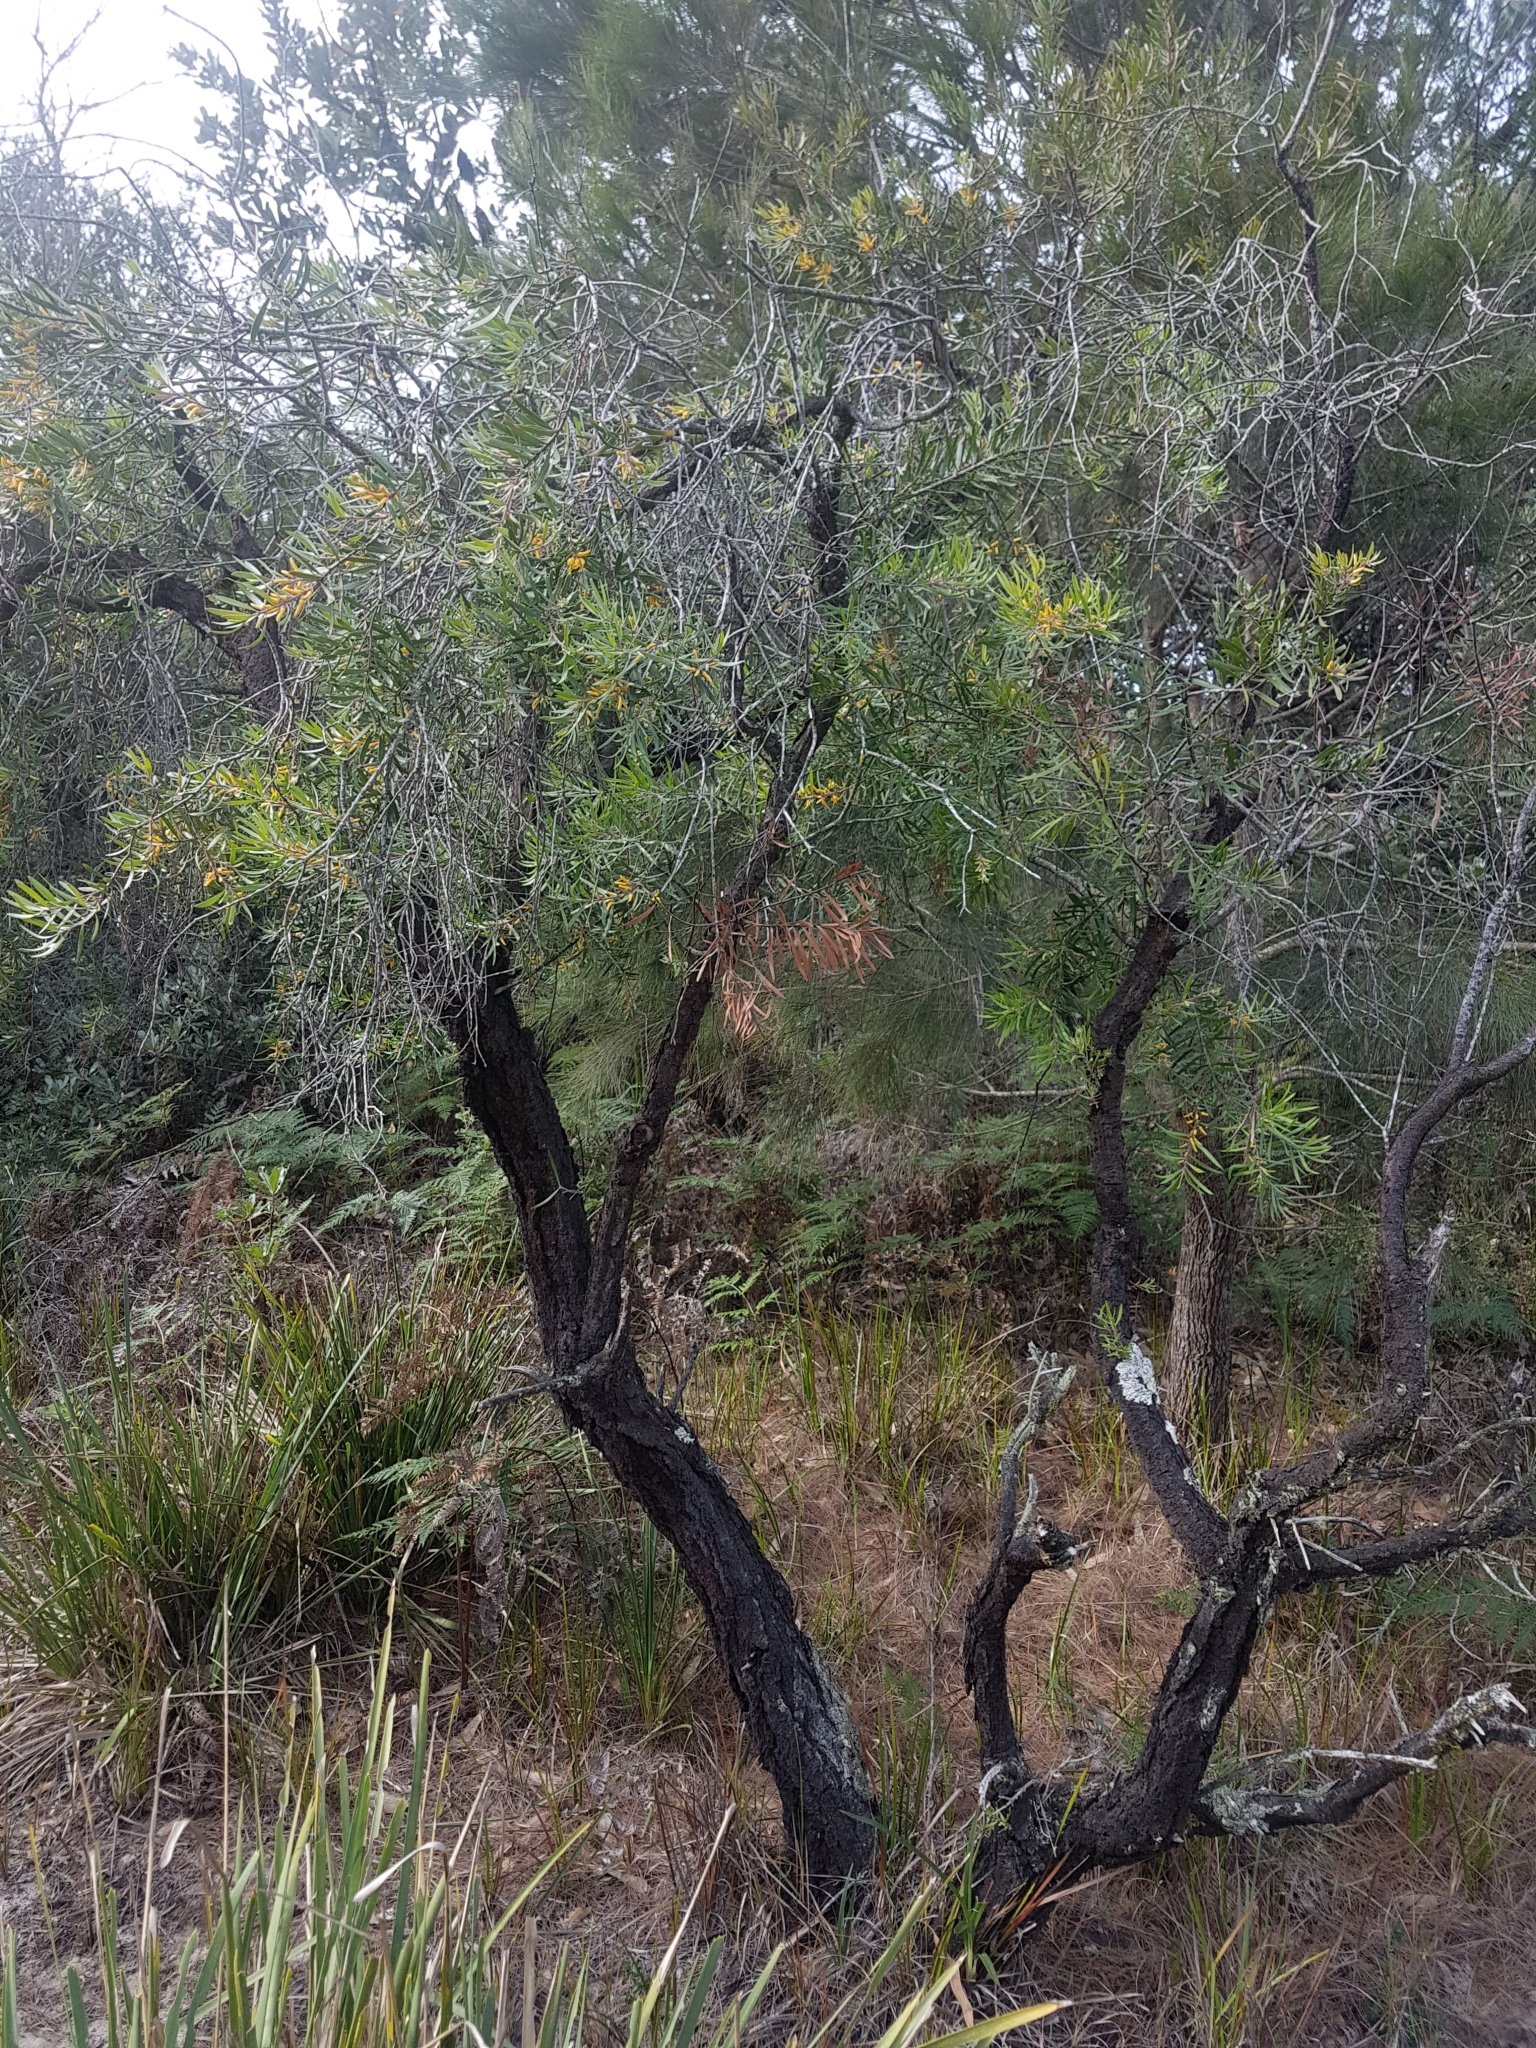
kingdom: Plantae
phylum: Tracheophyta
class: Magnoliopsida
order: Proteales
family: Proteaceae
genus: Persoonia
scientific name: Persoonia linearis
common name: Narrow-leaf geebung
